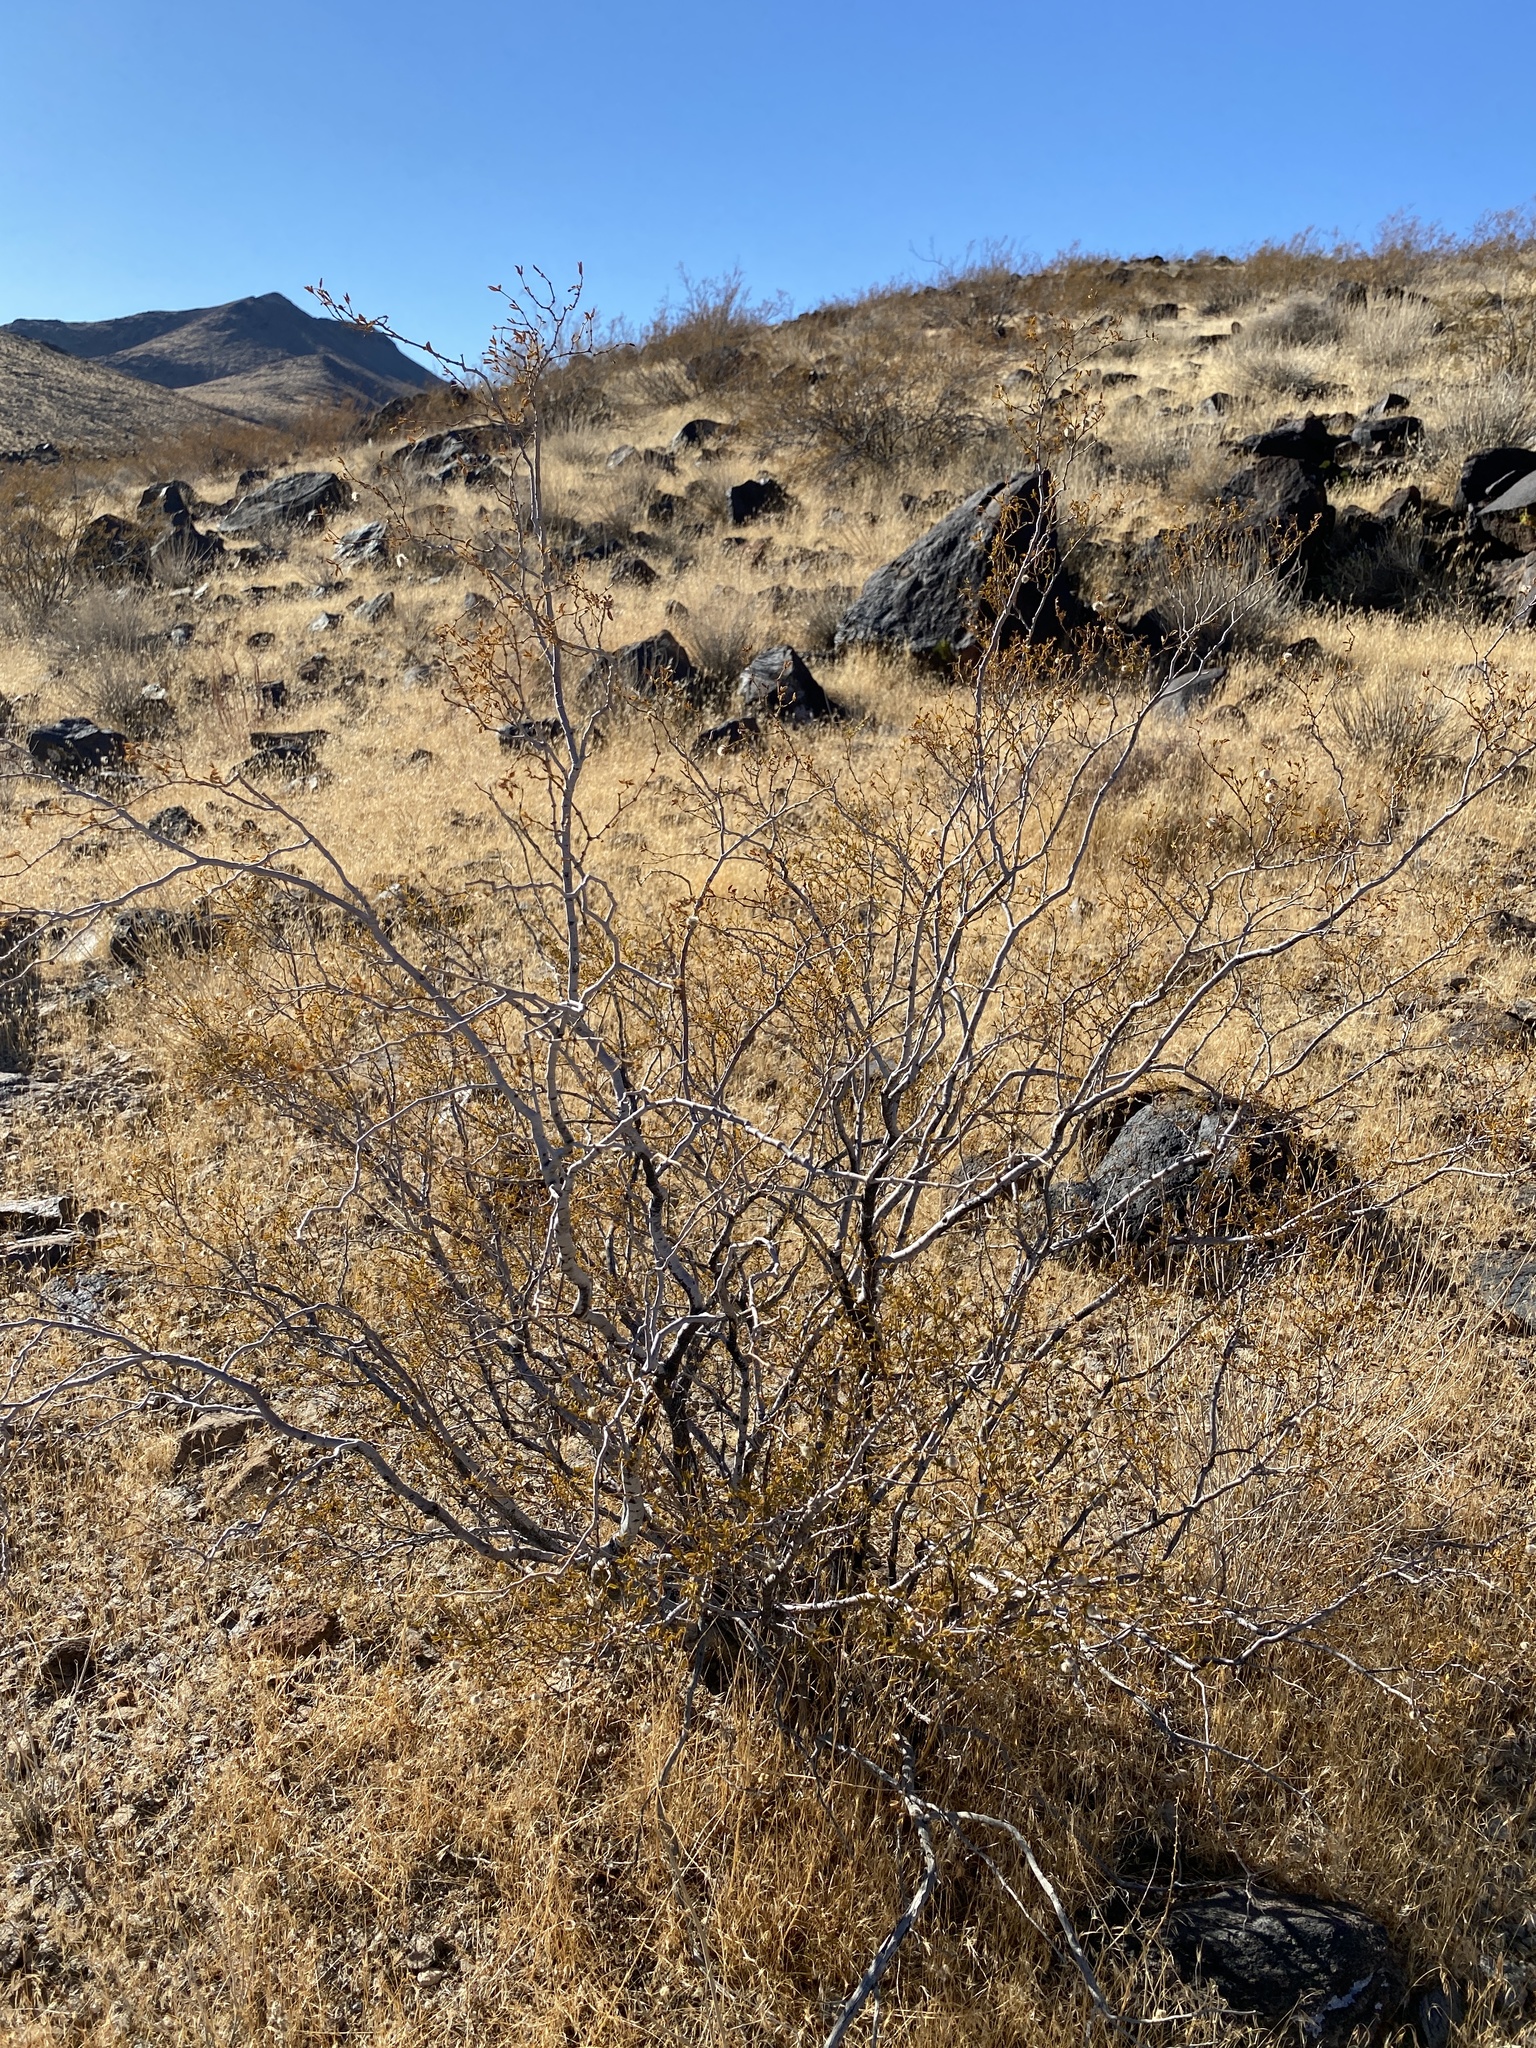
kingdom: Plantae
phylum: Tracheophyta
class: Magnoliopsida
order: Zygophyllales
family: Zygophyllaceae
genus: Larrea
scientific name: Larrea tridentata
